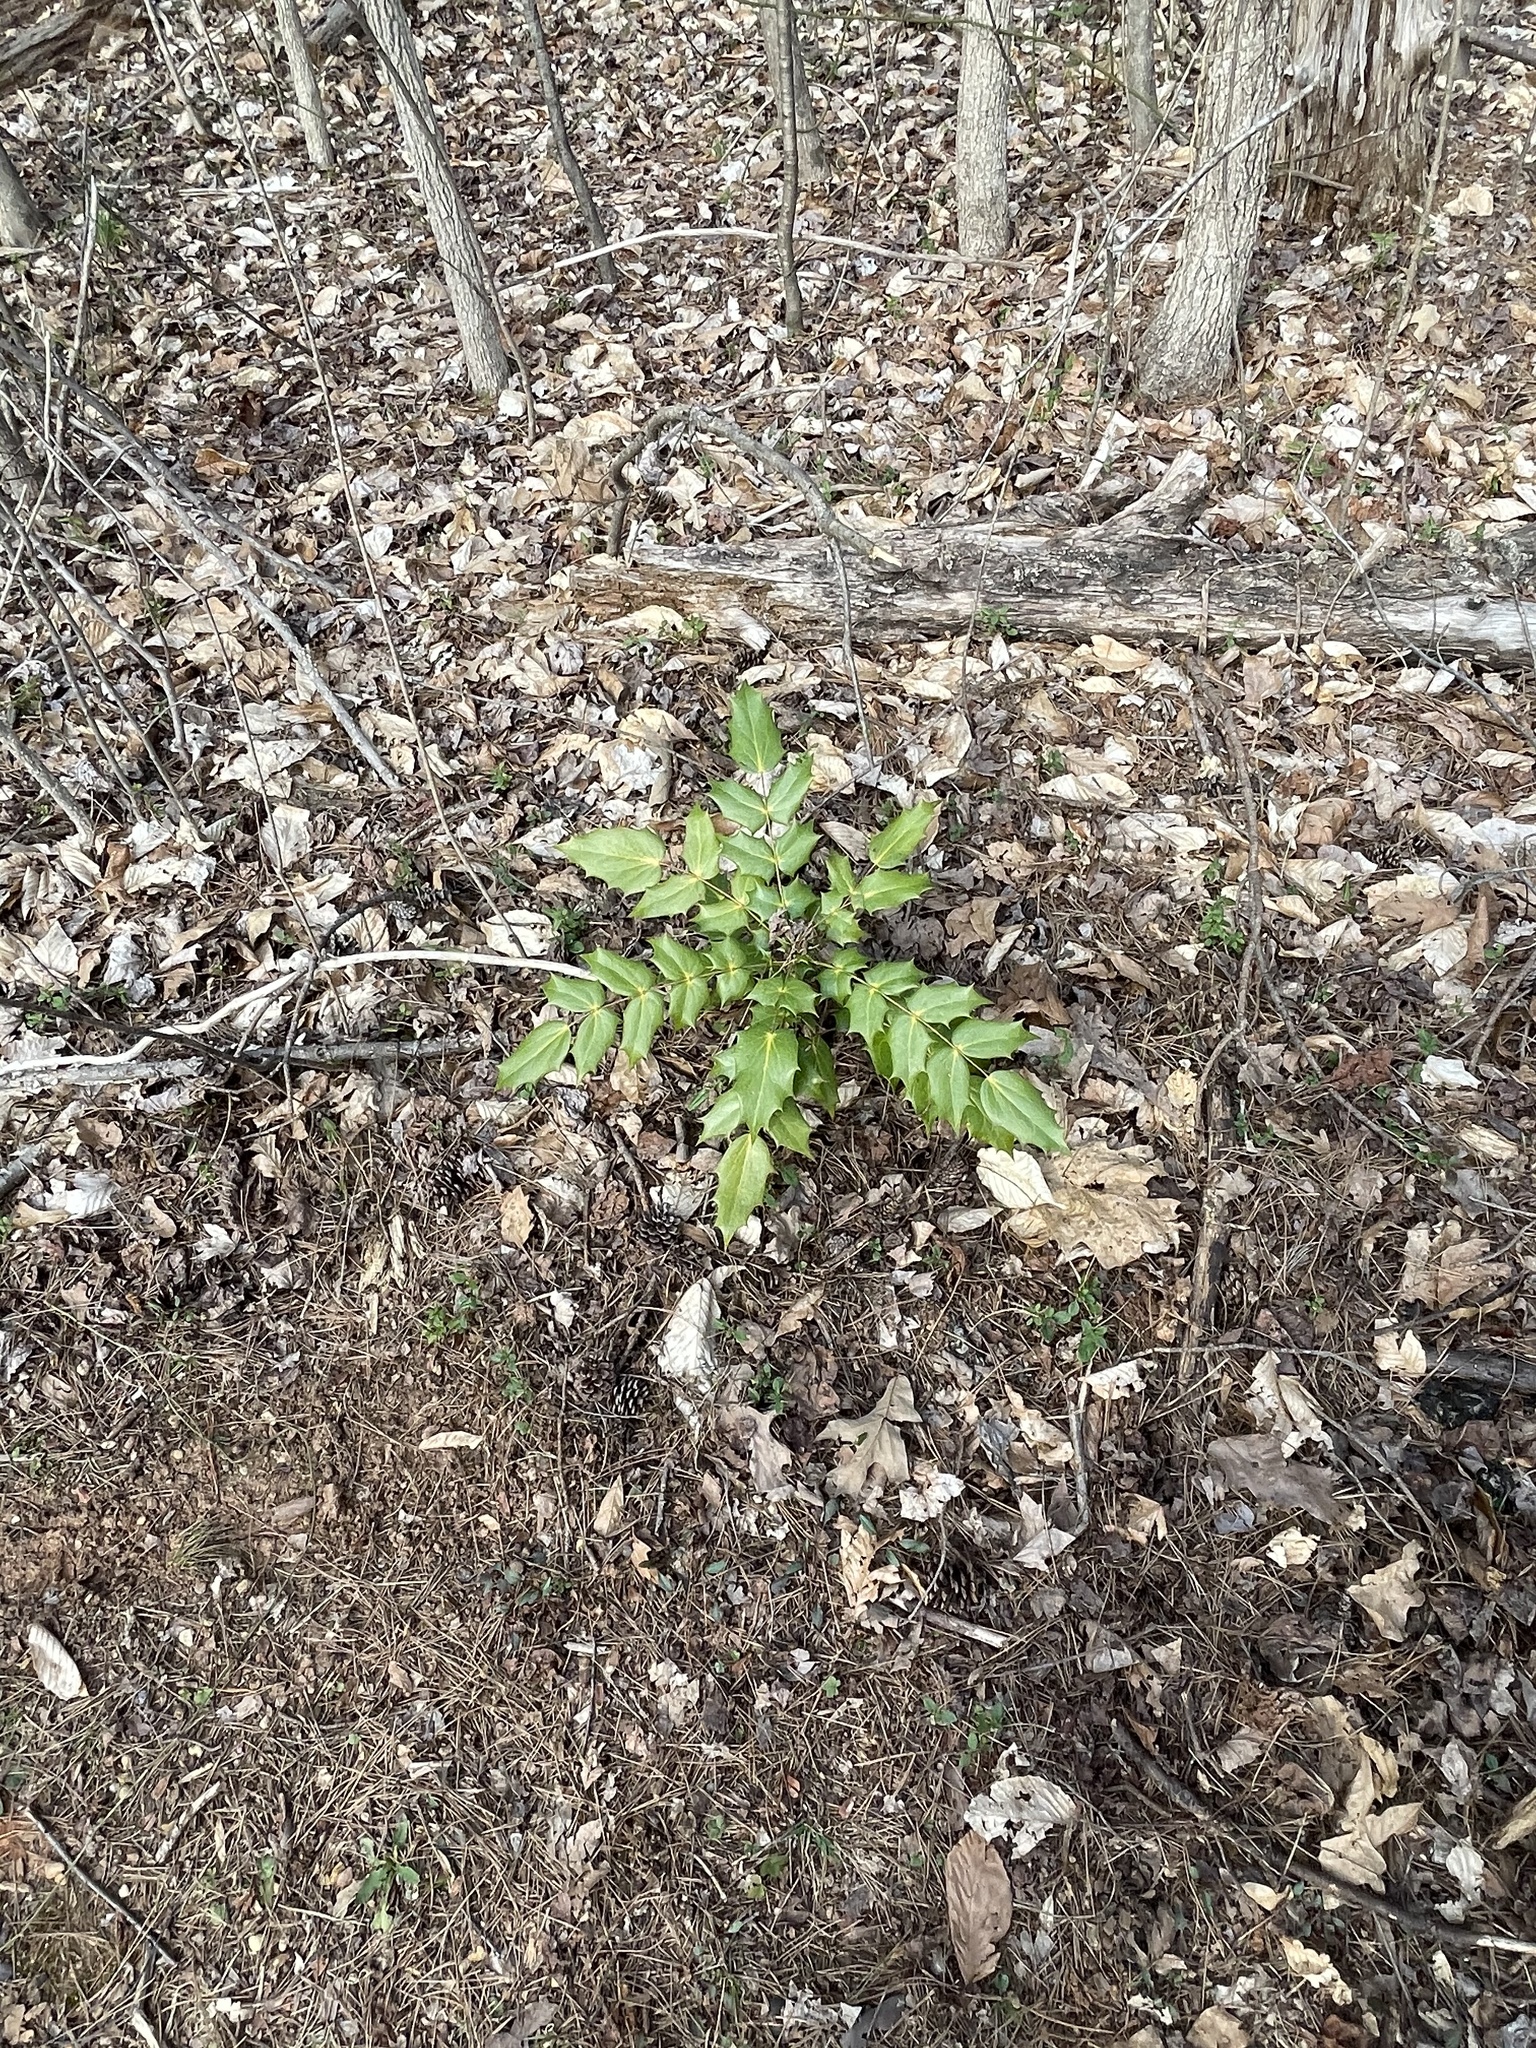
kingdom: Plantae
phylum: Tracheophyta
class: Magnoliopsida
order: Ranunculales
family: Berberidaceae
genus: Mahonia
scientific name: Mahonia bealei
